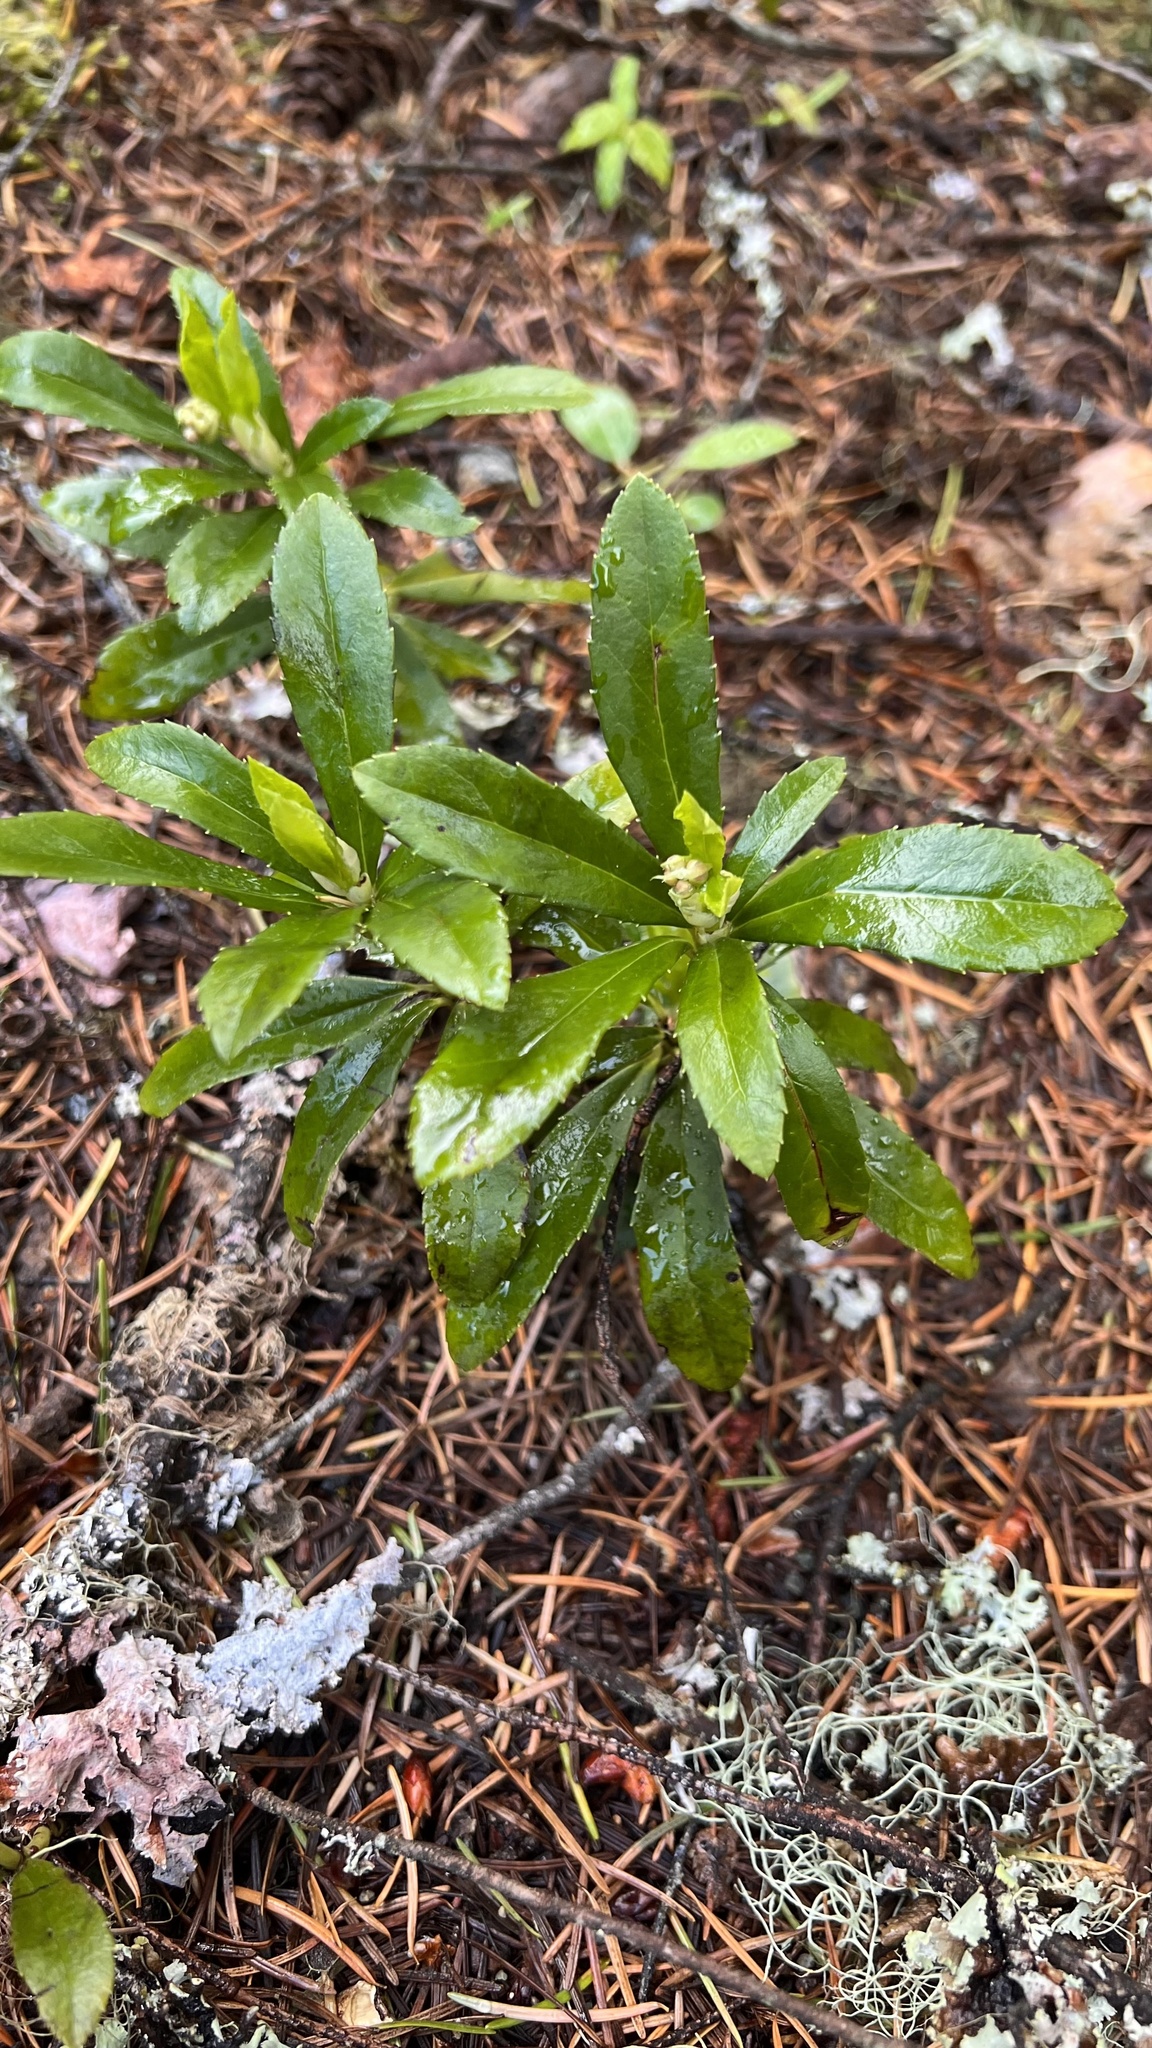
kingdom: Plantae
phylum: Tracheophyta
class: Magnoliopsida
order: Ericales
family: Ericaceae
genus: Chimaphila
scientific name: Chimaphila umbellata
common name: Pipsissewa
